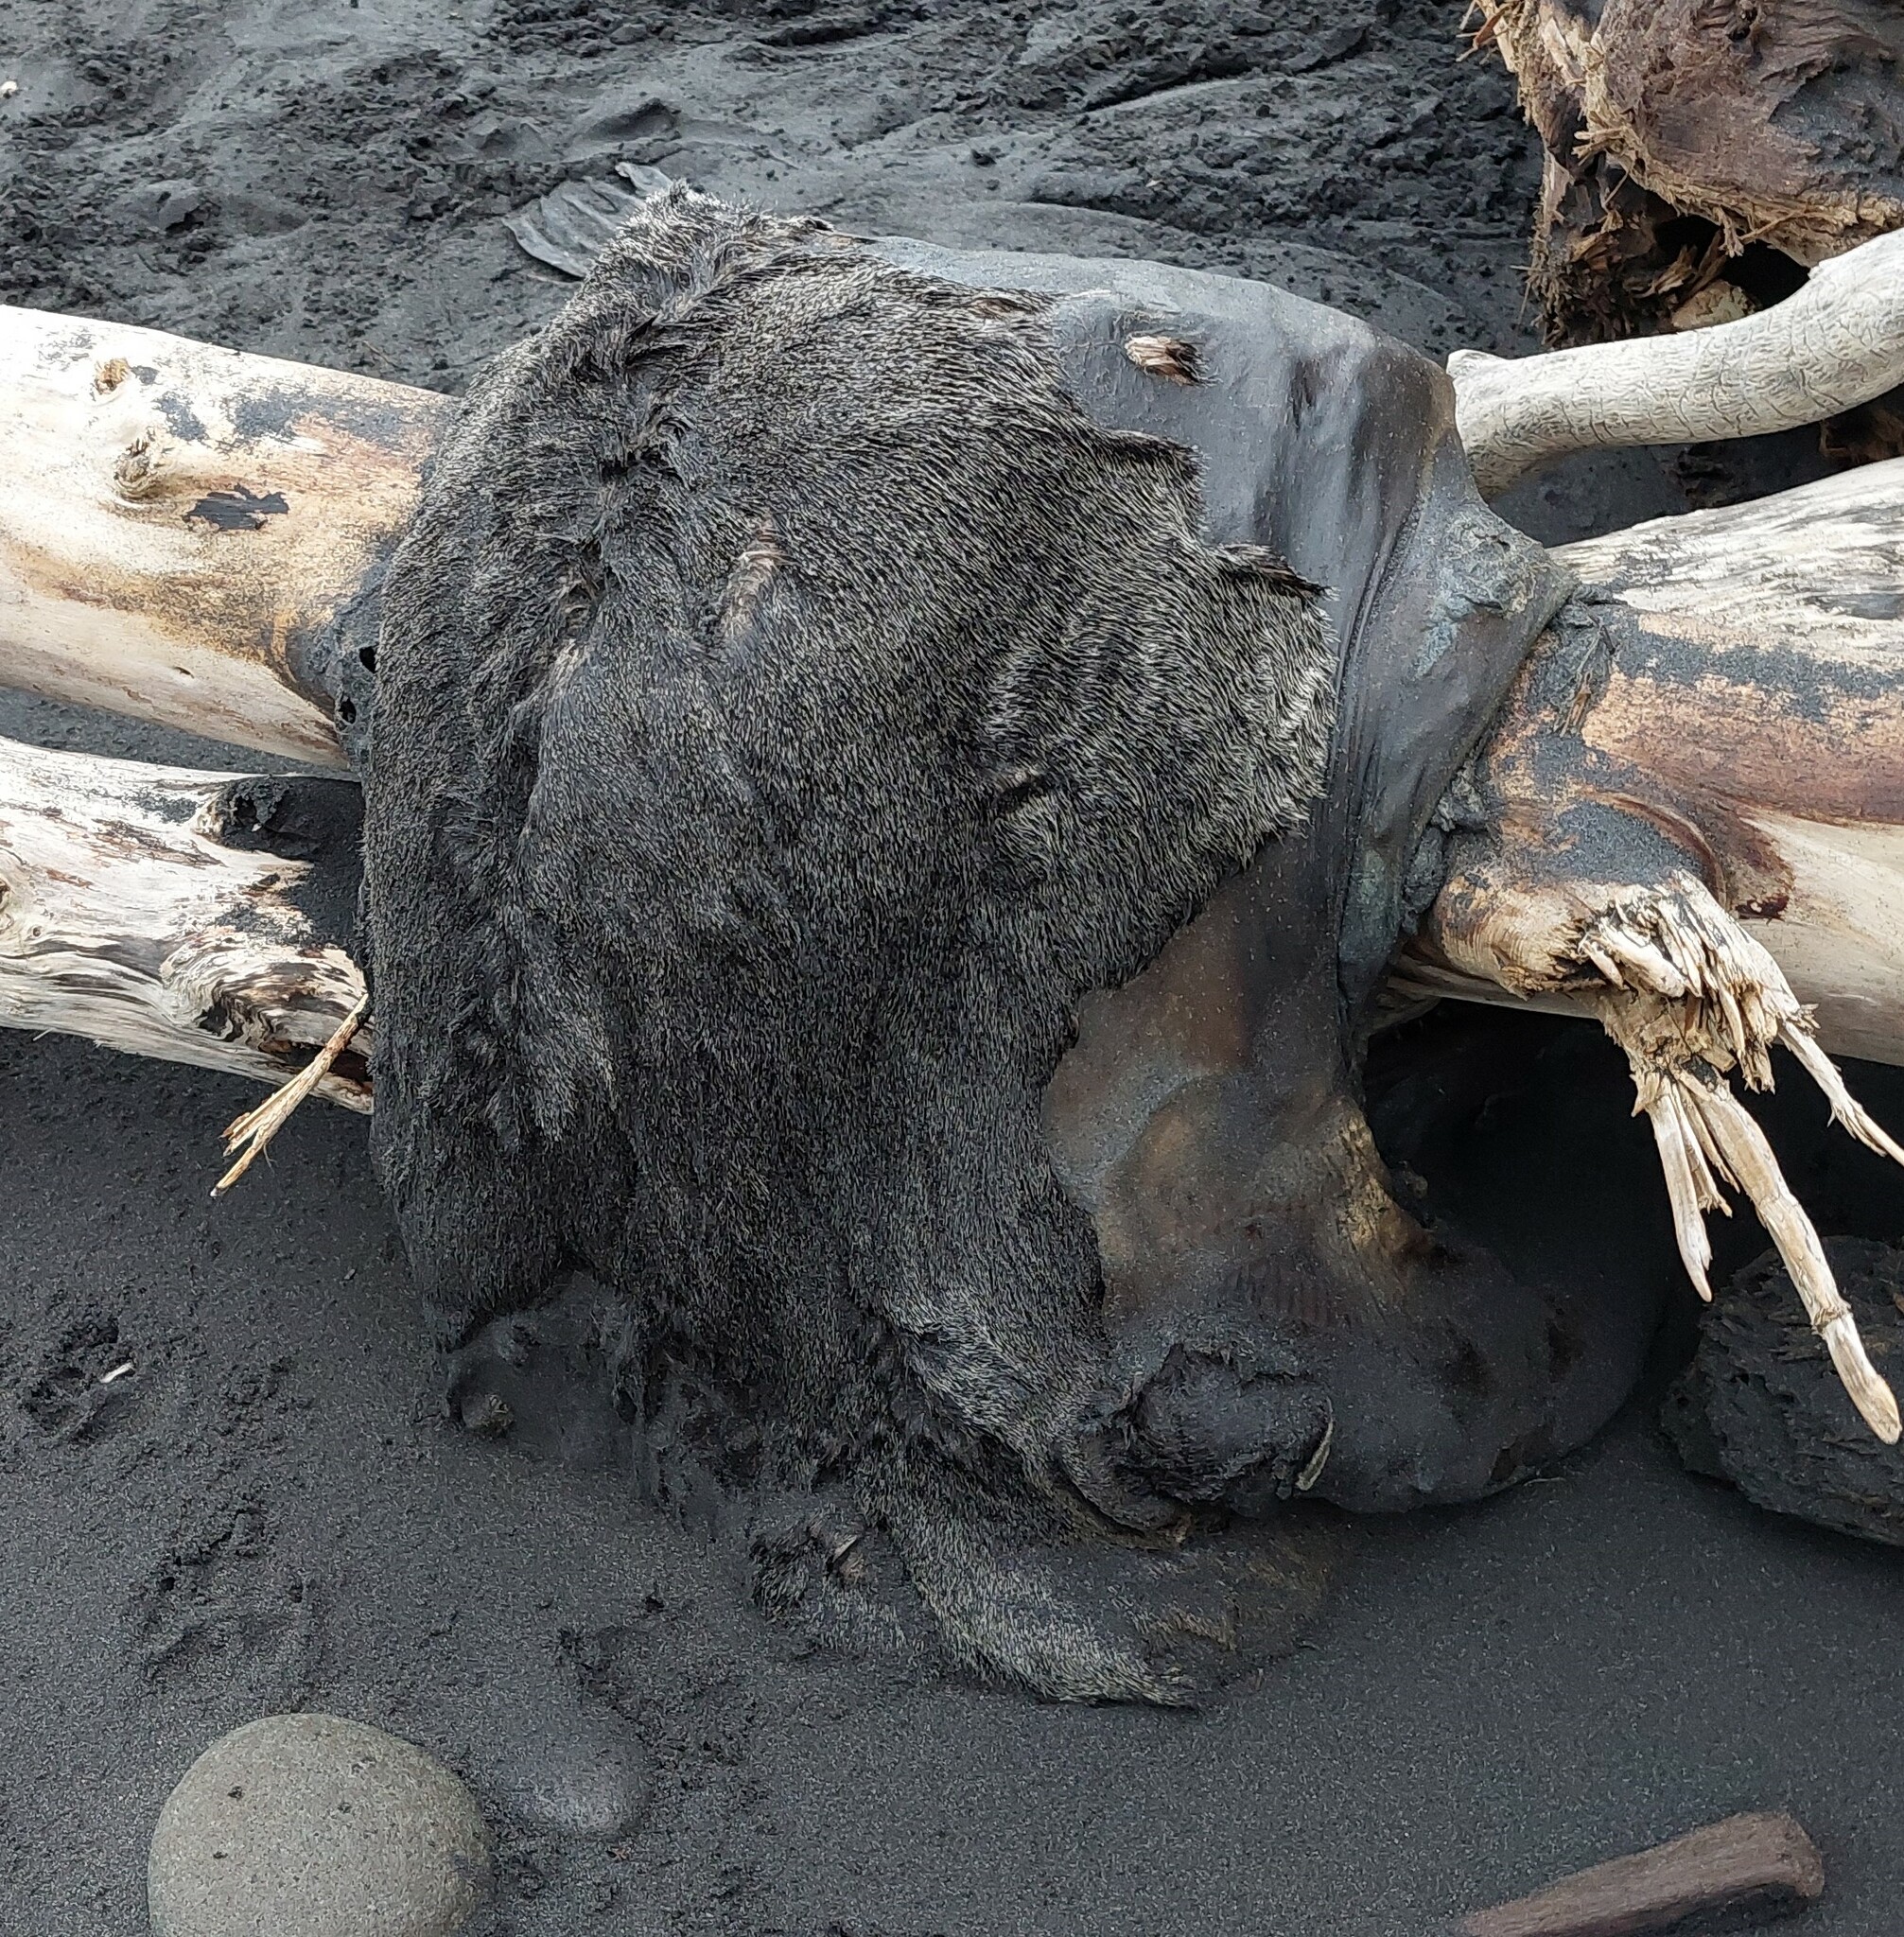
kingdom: Animalia
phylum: Chordata
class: Mammalia
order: Carnivora
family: Otariidae
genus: Arctocephalus
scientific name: Arctocephalus forsteri
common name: New zealand fur seal
